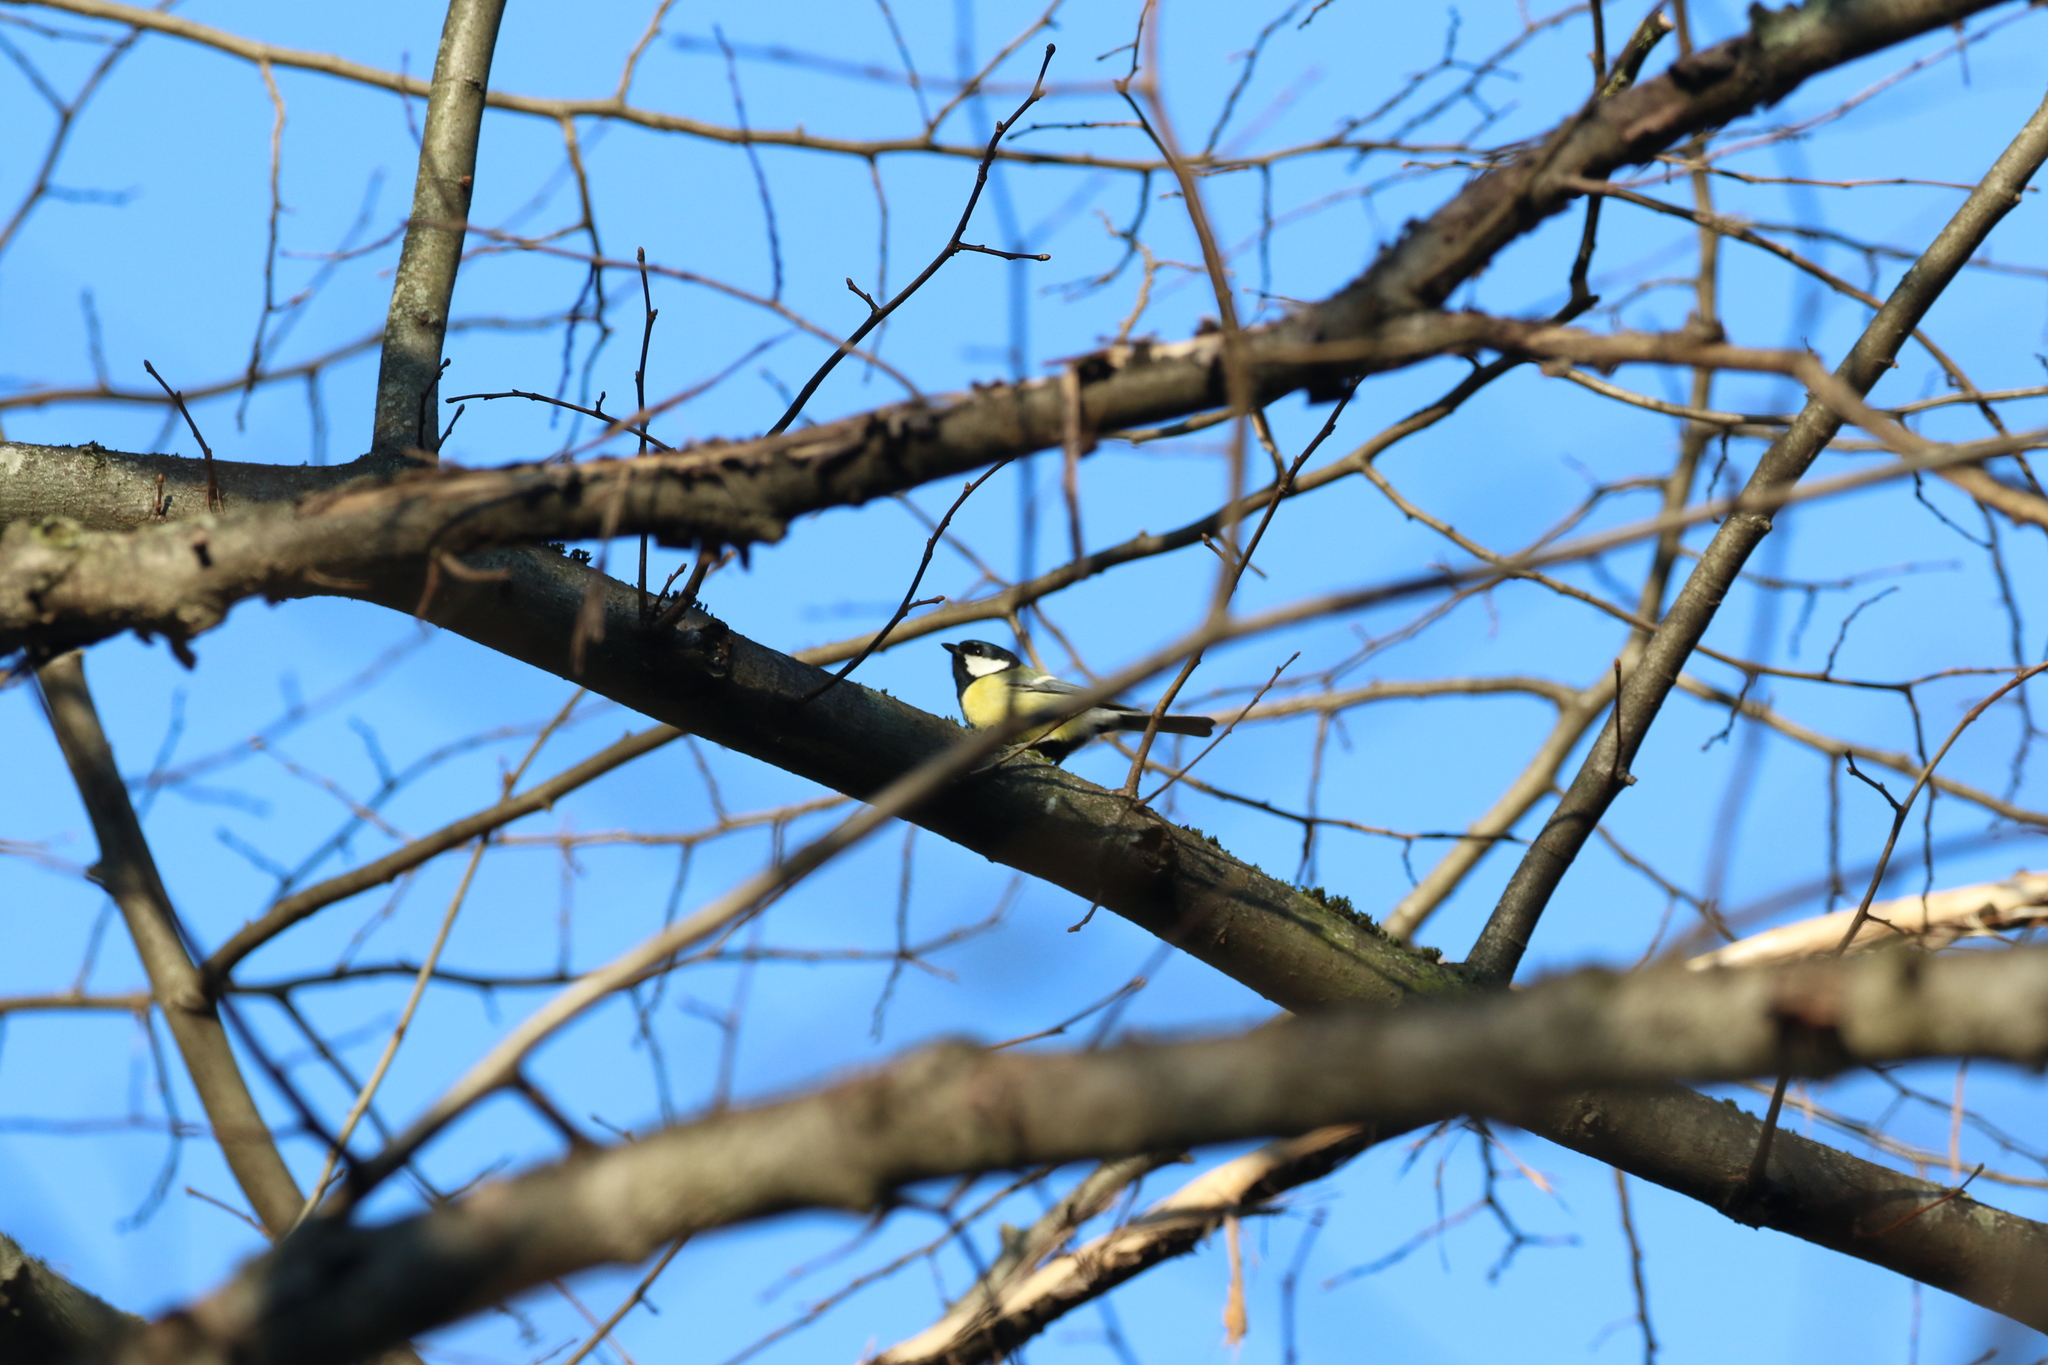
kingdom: Animalia
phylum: Chordata
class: Aves
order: Passeriformes
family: Paridae
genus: Parus
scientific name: Parus major
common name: Great tit
